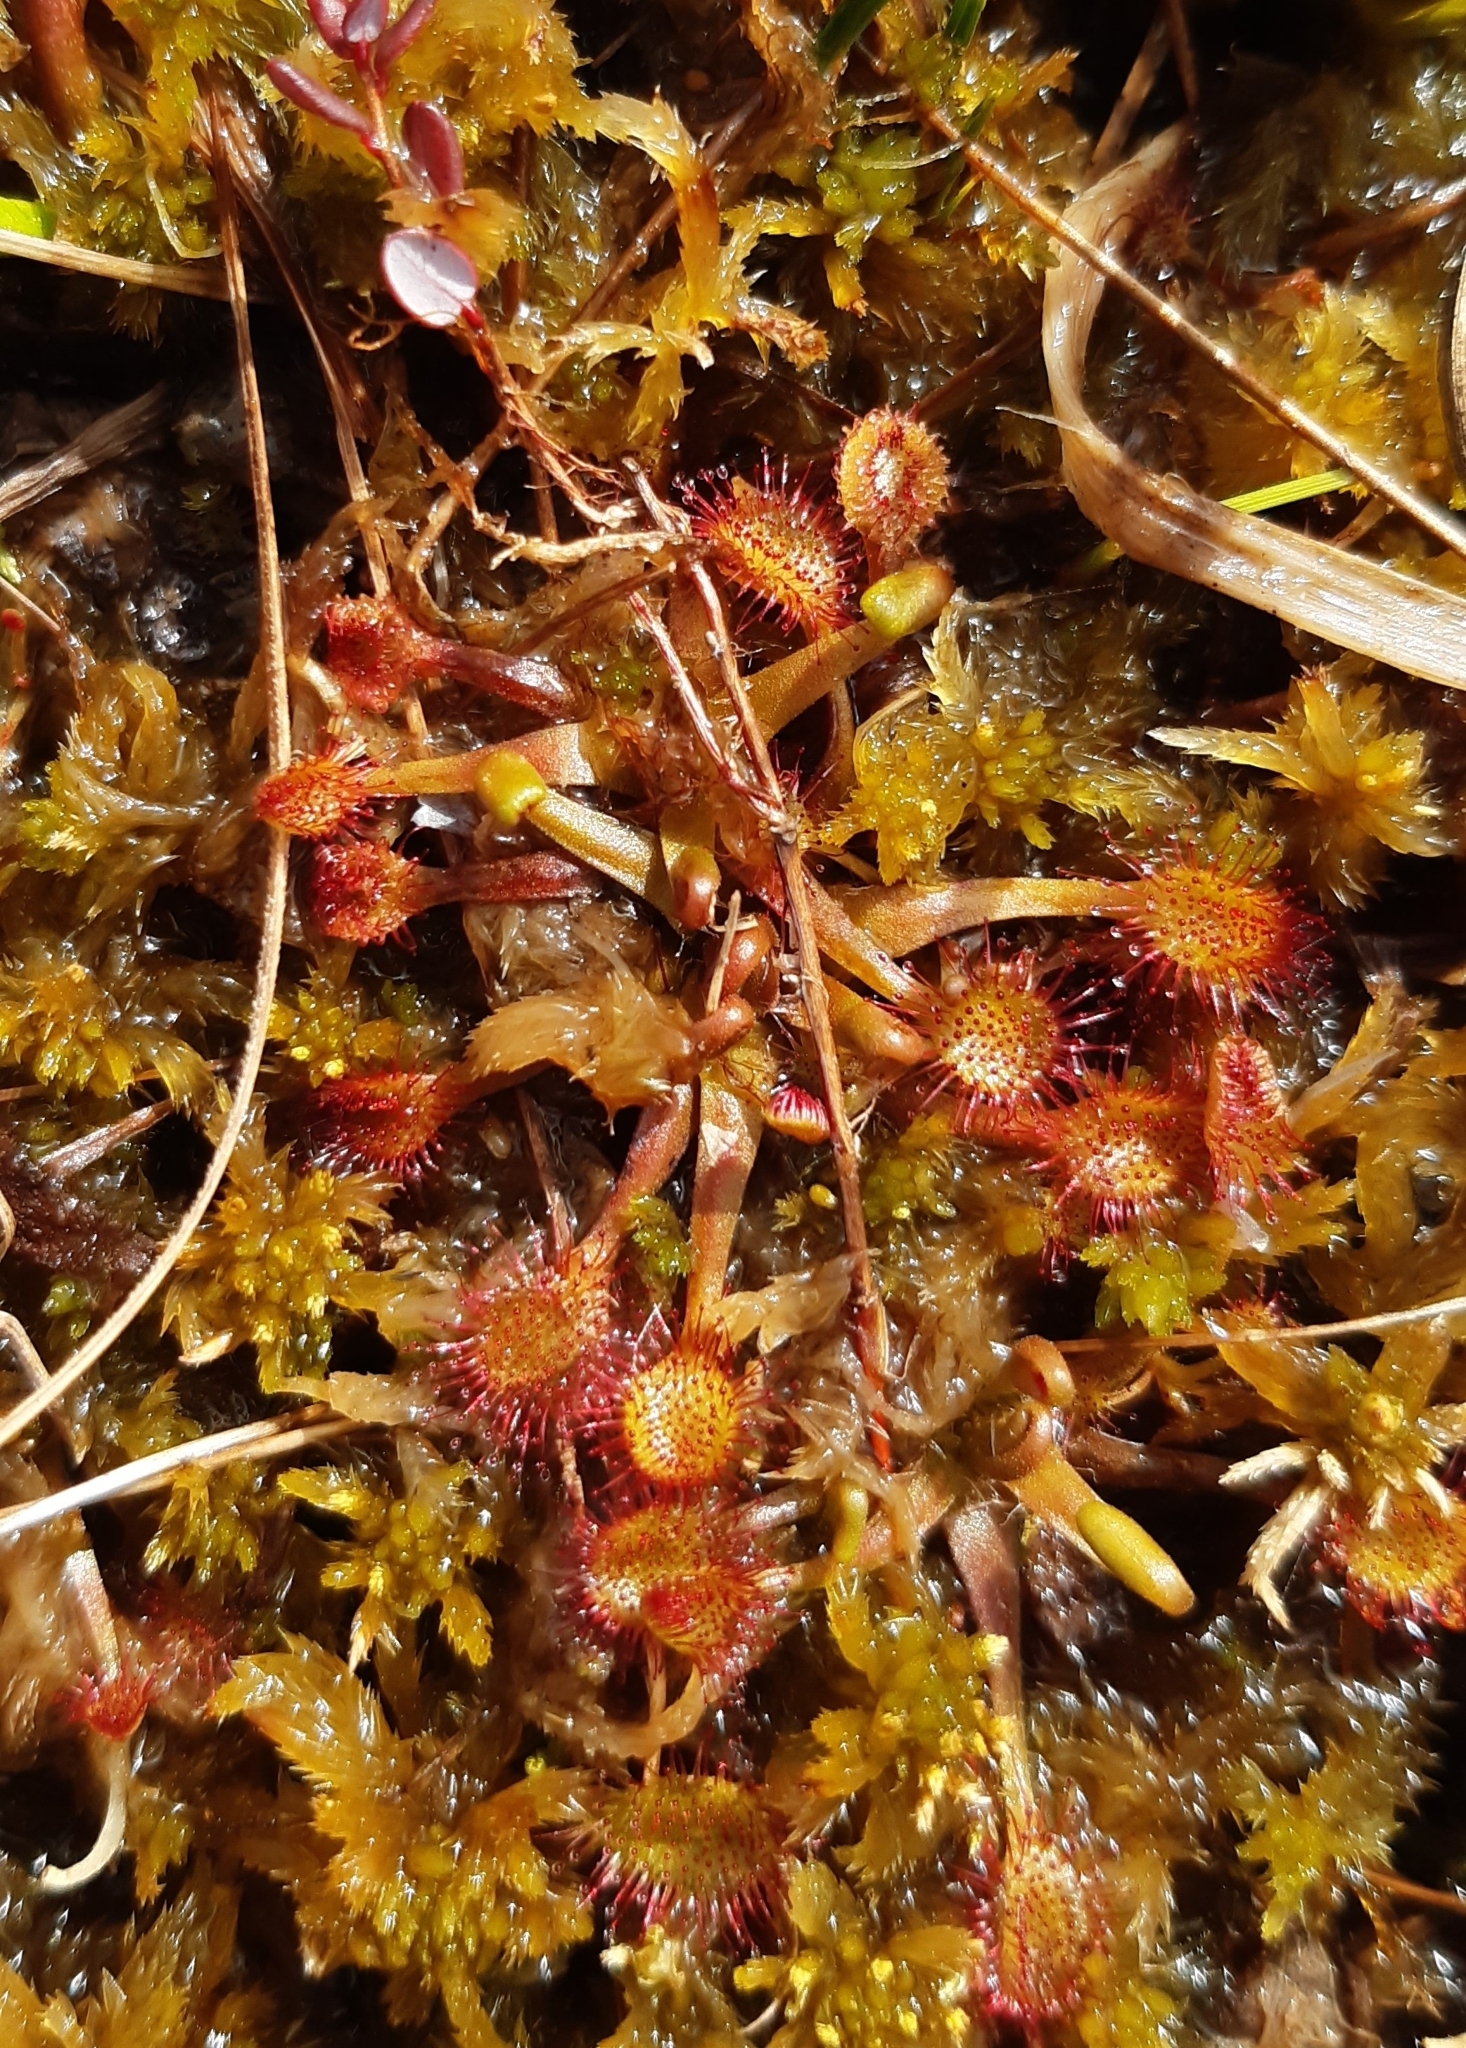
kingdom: Plantae
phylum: Tracheophyta
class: Magnoliopsida
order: Caryophyllales
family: Droseraceae
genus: Drosera
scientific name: Drosera rotundifolia
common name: Round-leaved sundew
